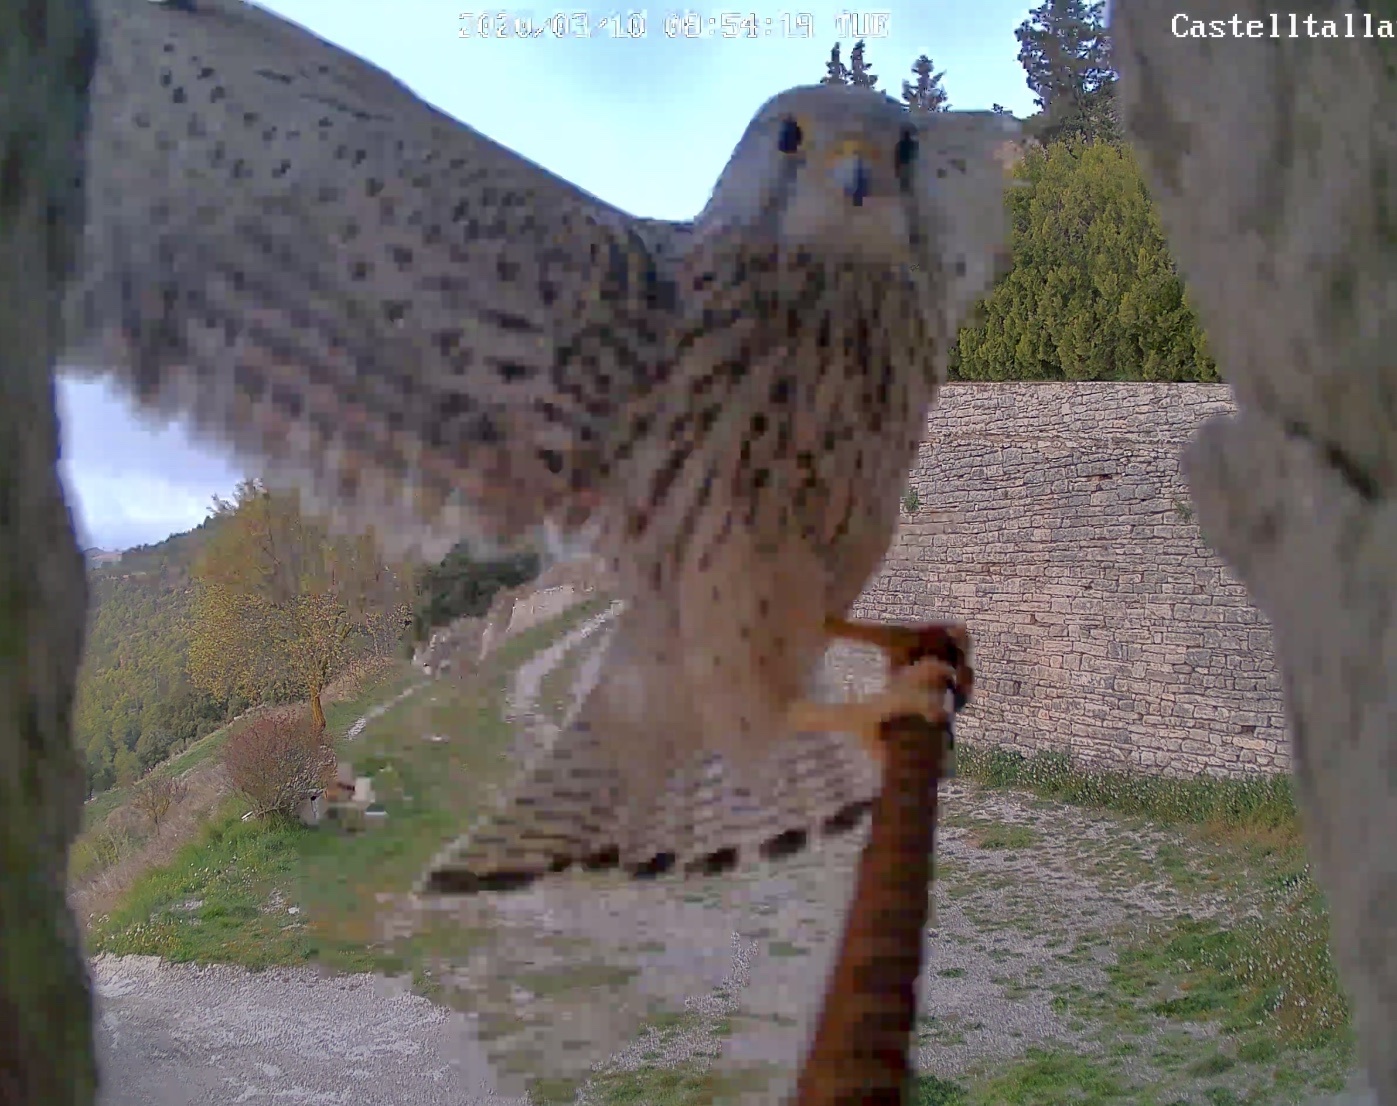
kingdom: Animalia
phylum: Chordata
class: Aves
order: Falconiformes
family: Falconidae
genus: Falco
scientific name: Falco tinnunculus
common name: Common kestrel
